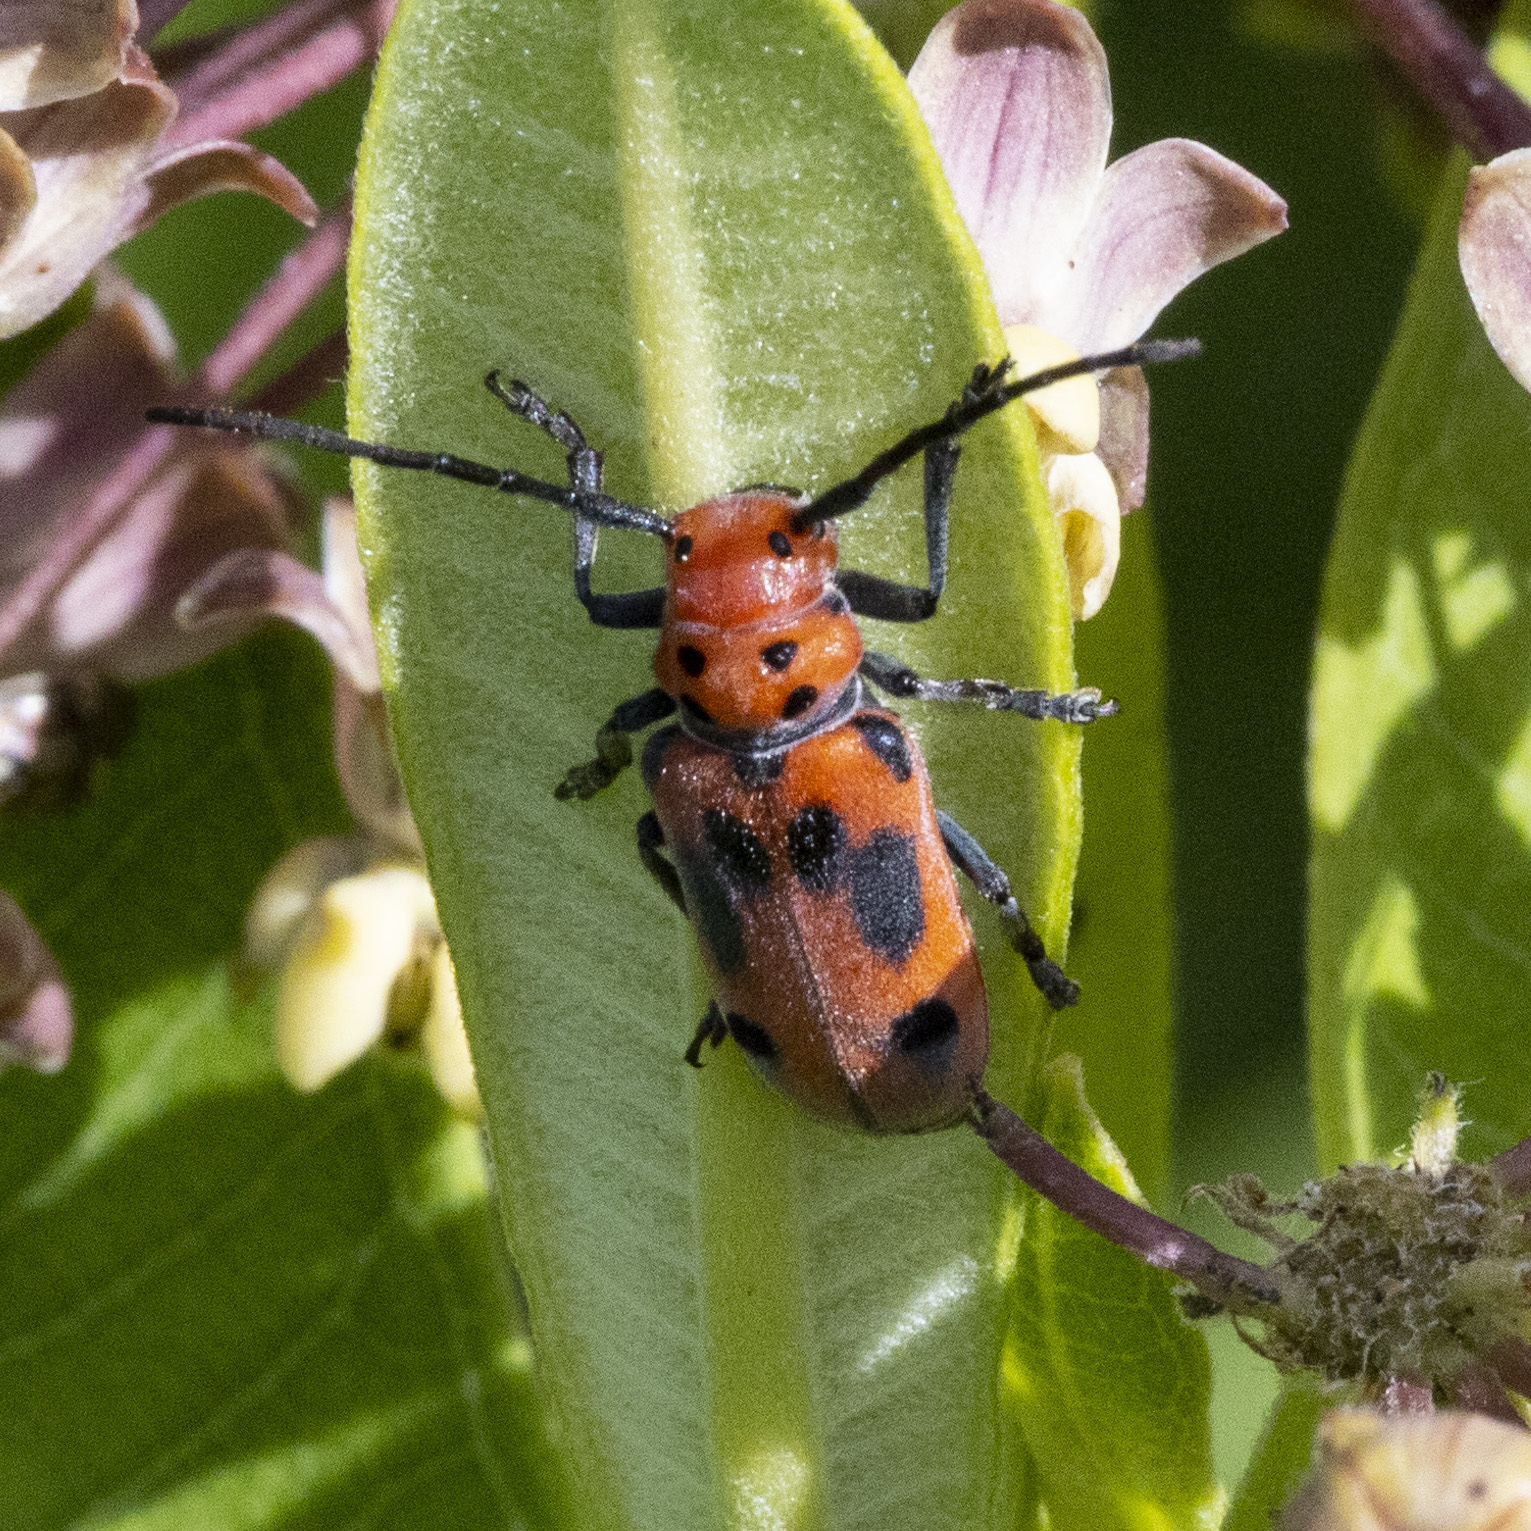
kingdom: Animalia
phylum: Arthropoda
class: Insecta
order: Coleoptera
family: Cerambycidae
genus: Tetraopes
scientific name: Tetraopes tetrophthalmus
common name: Red milkweed beetle
